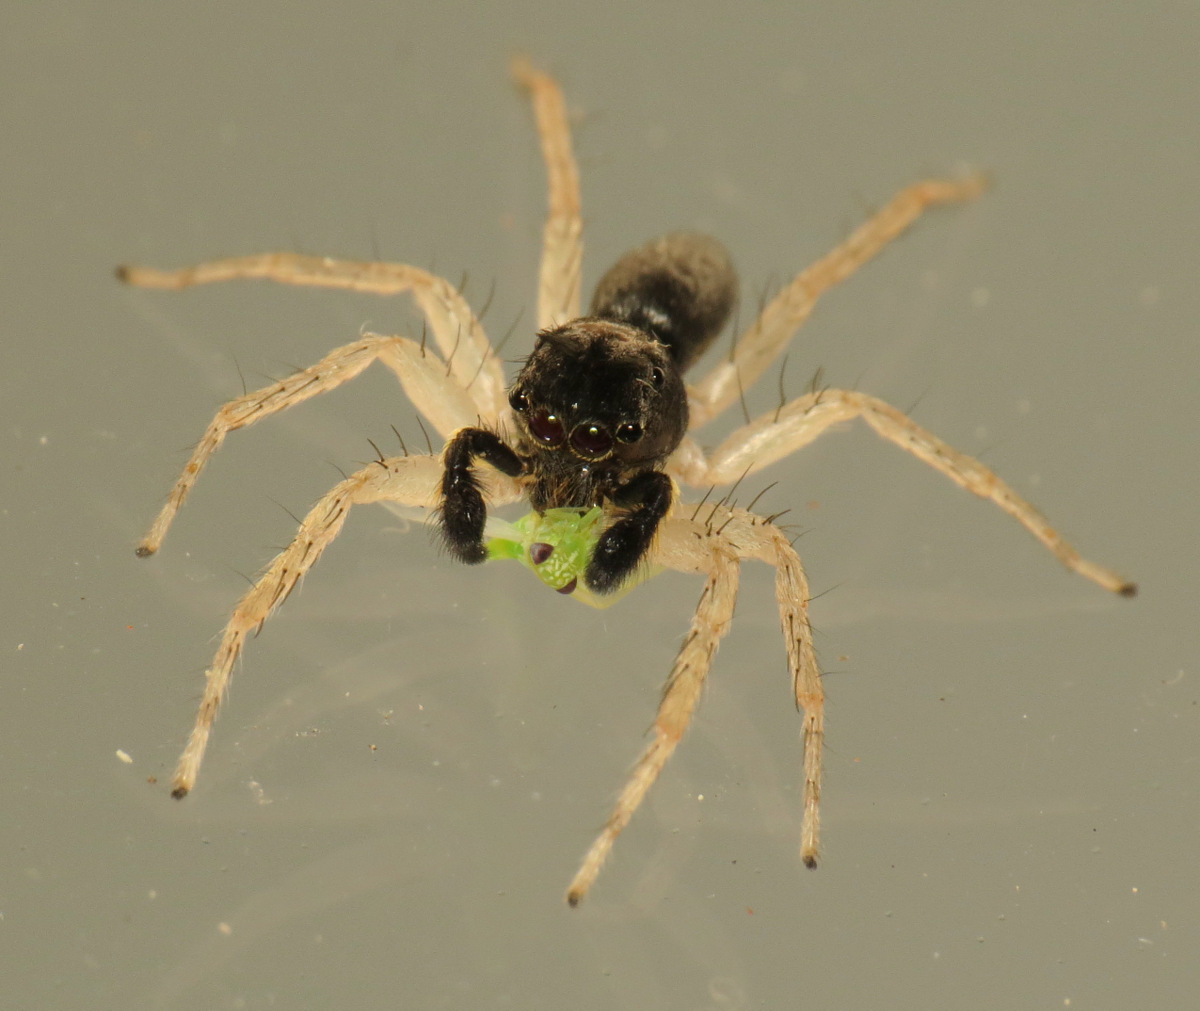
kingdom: Animalia
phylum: Arthropoda
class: Arachnida
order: Araneae
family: Salticidae
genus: Maevia
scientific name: Maevia inclemens
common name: Dimorphic jumper
